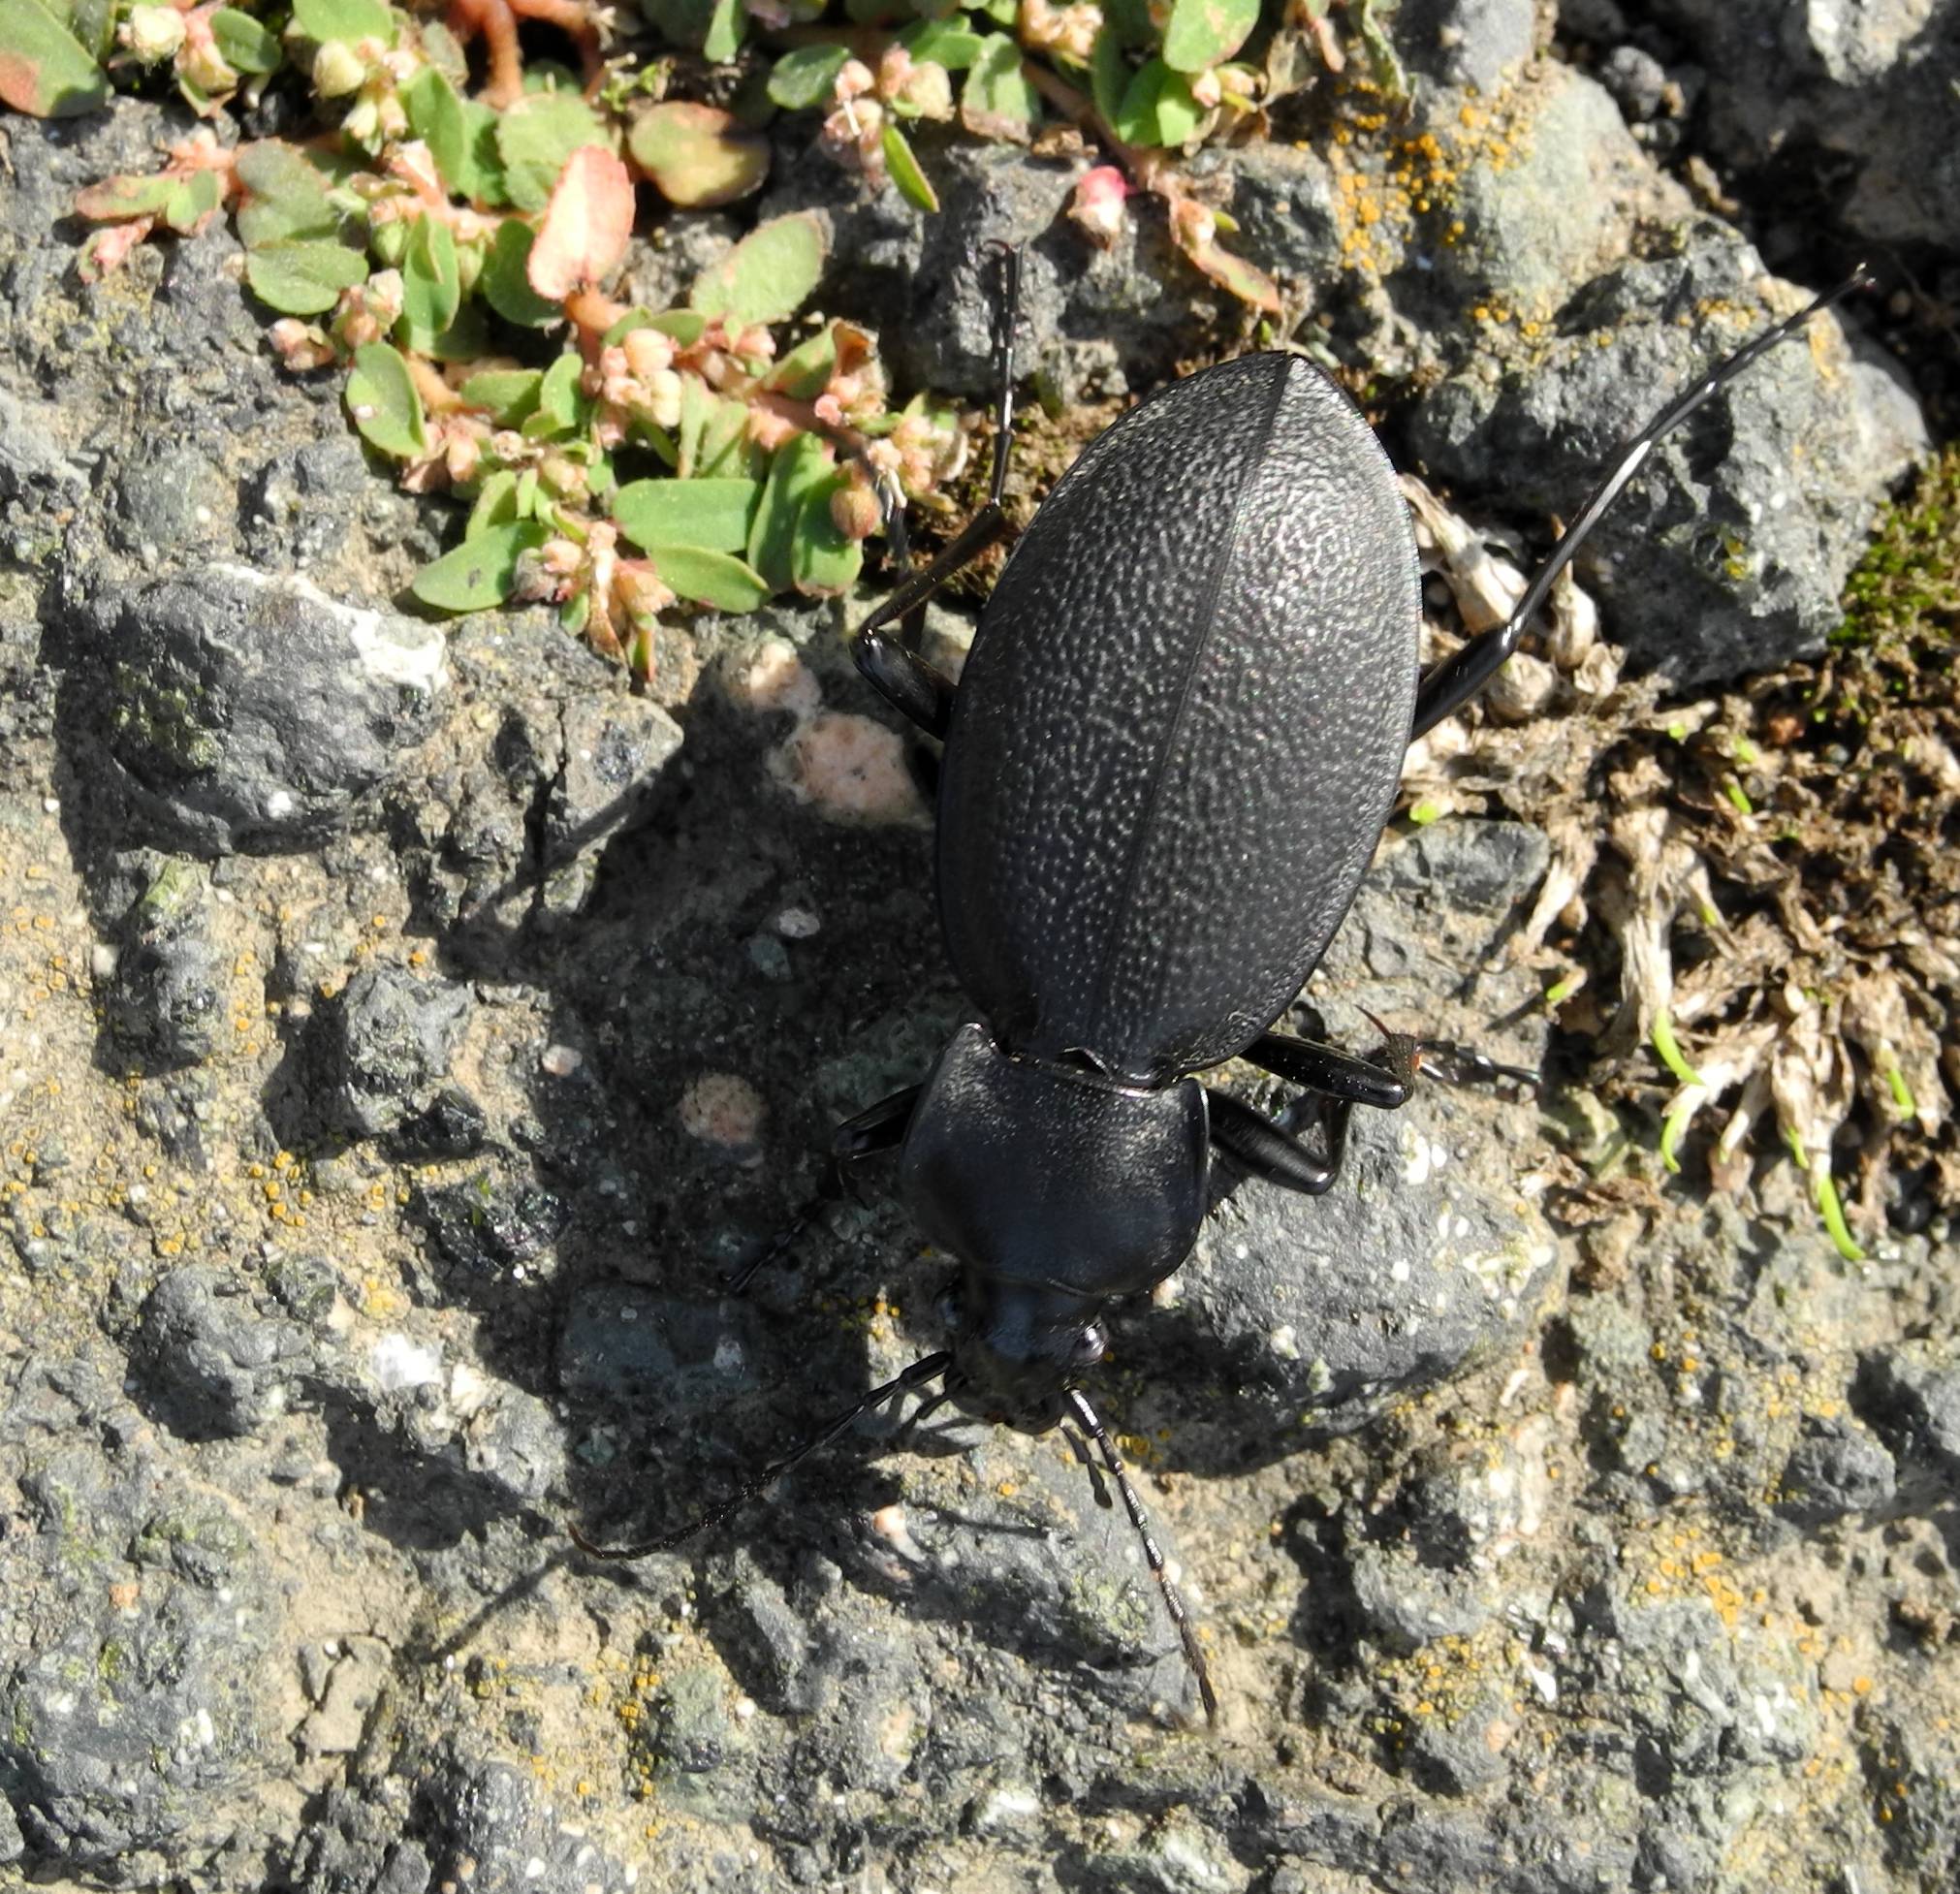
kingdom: Animalia
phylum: Arthropoda
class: Insecta
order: Coleoptera
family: Carabidae
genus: Carabus
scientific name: Carabus coriaceus
